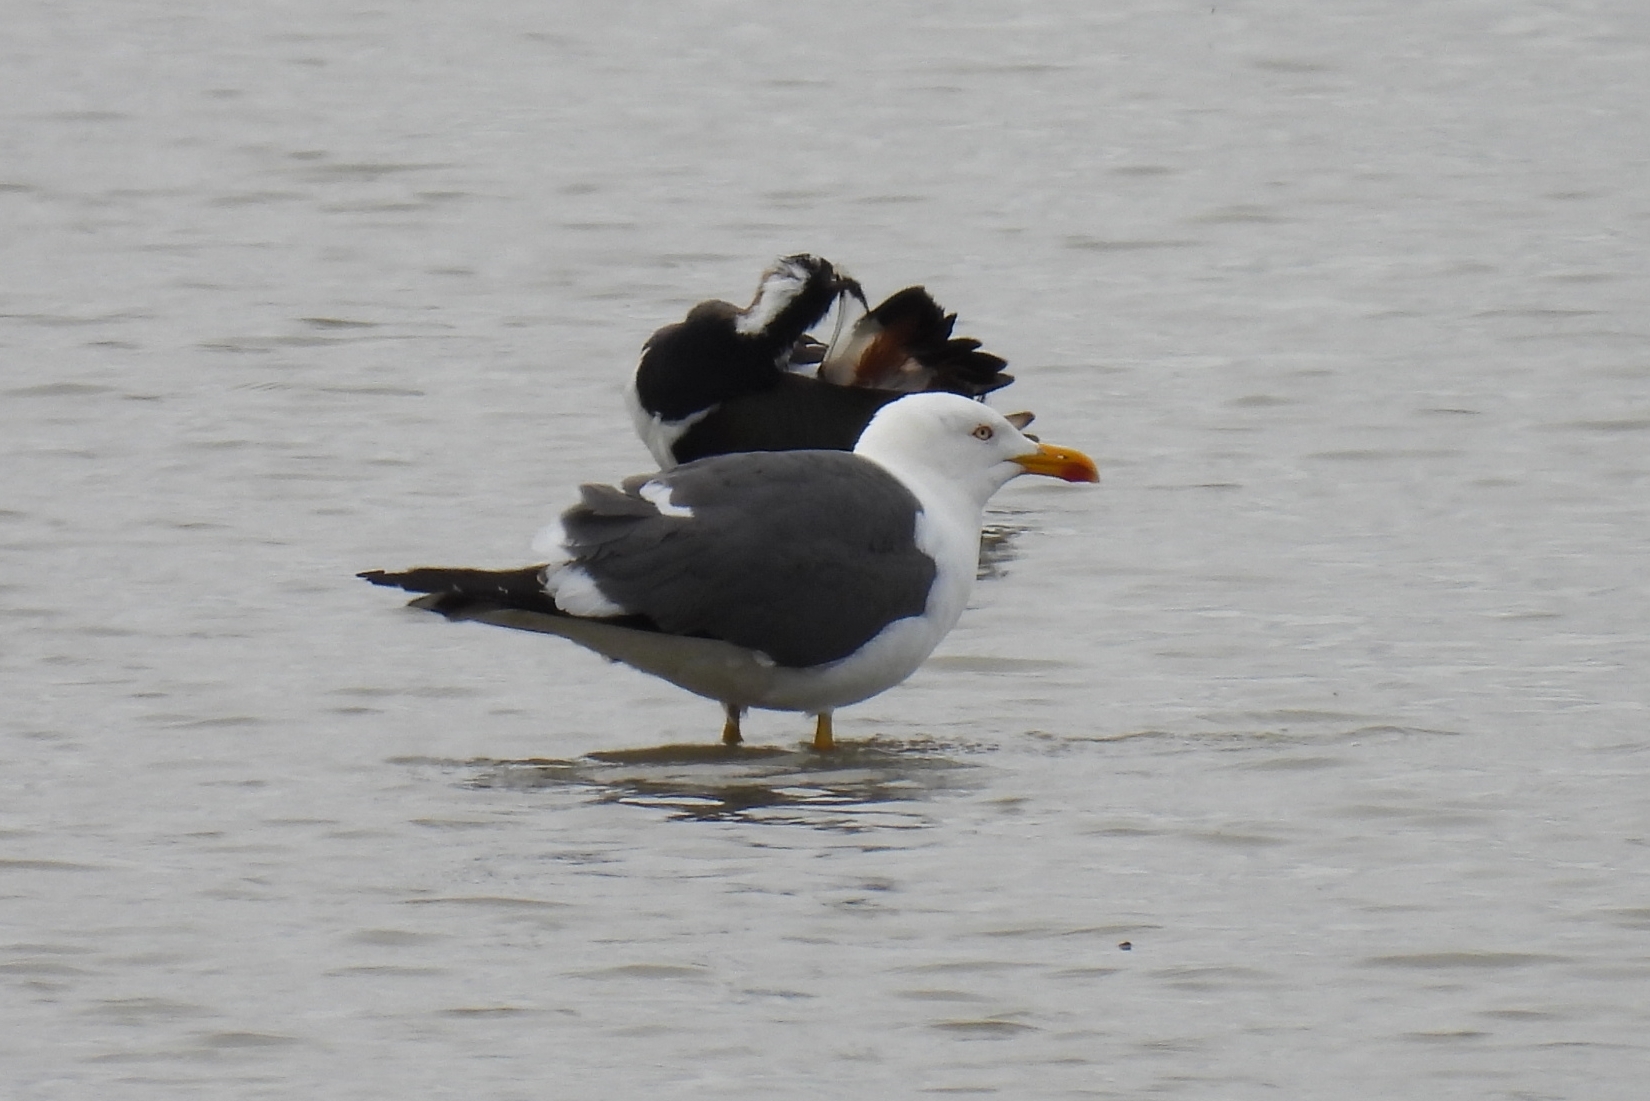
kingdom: Animalia
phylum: Chordata
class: Aves
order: Charadriiformes
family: Laridae
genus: Larus
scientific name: Larus fuscus
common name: Lesser black-backed gull
